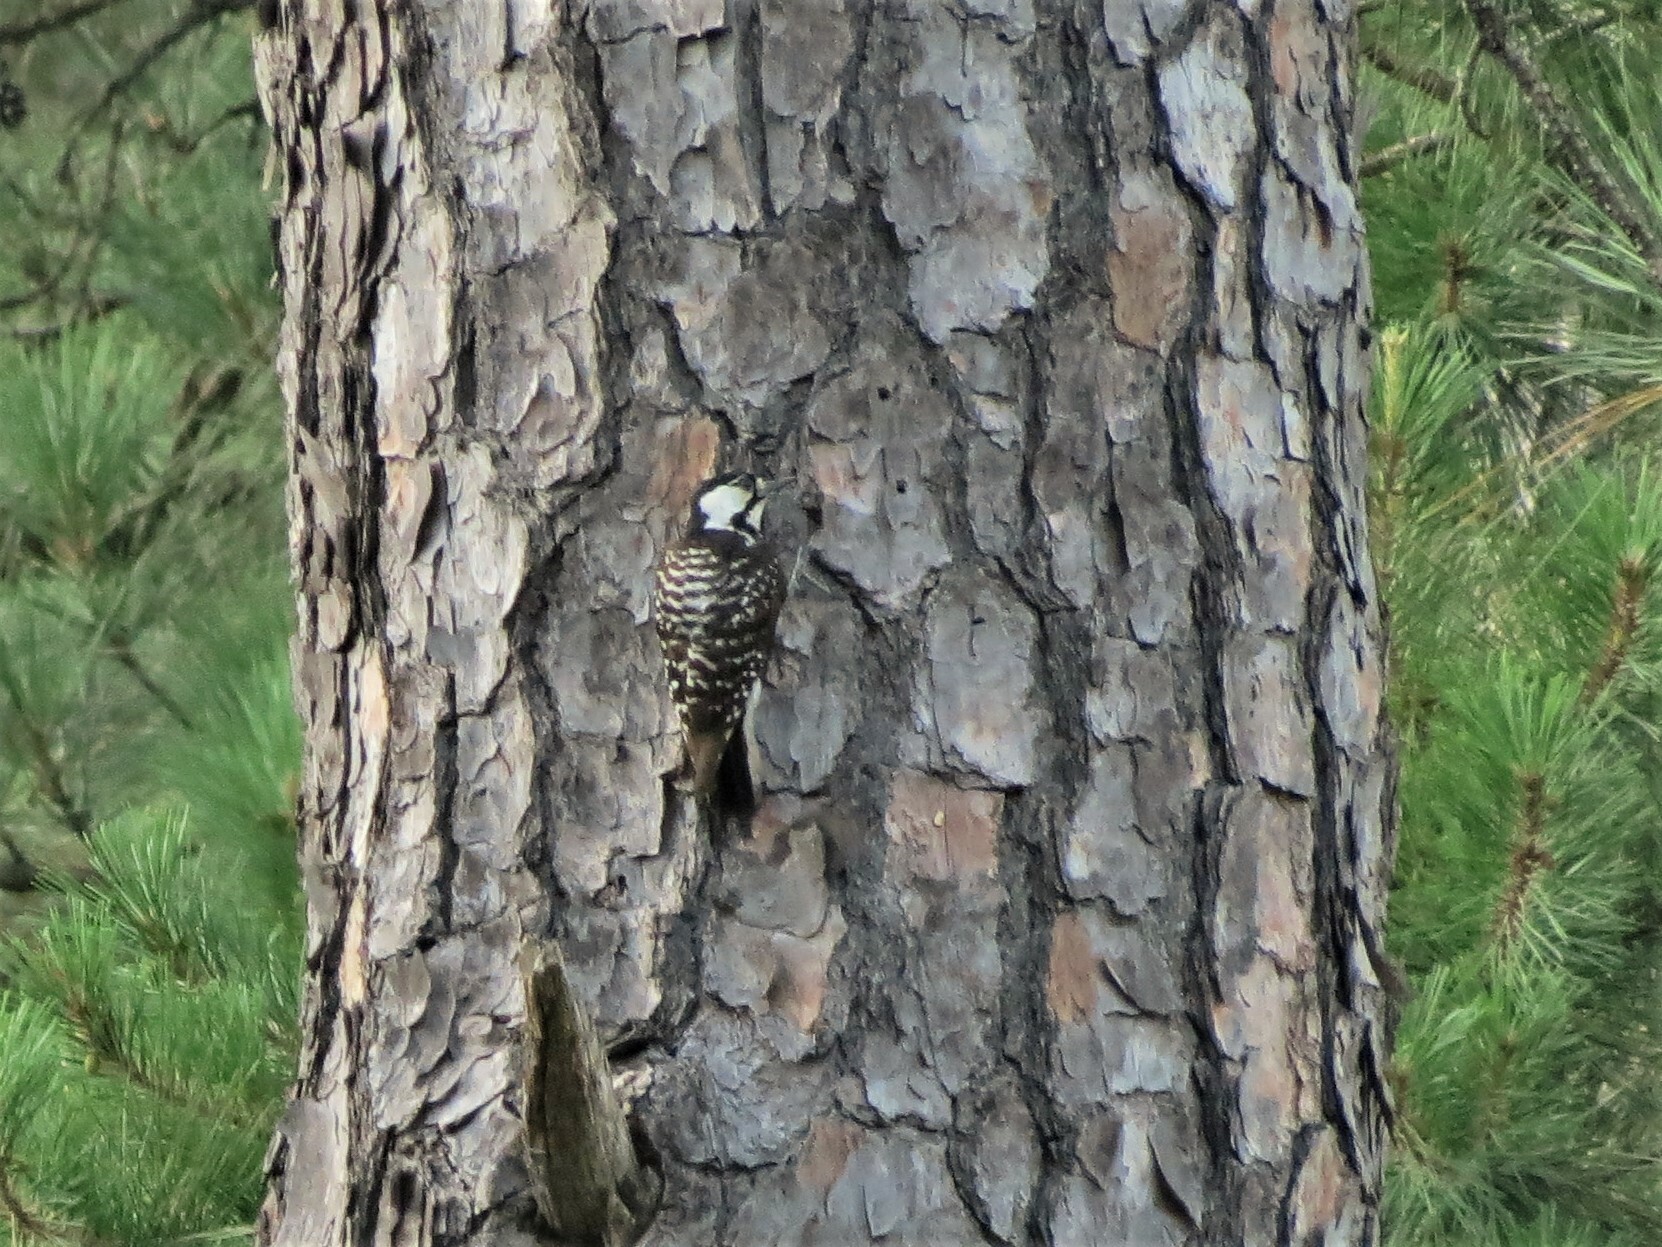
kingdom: Animalia
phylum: Chordata
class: Aves
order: Piciformes
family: Picidae
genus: Leuconotopicus
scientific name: Leuconotopicus borealis
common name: Red-cockaded woodpecker
